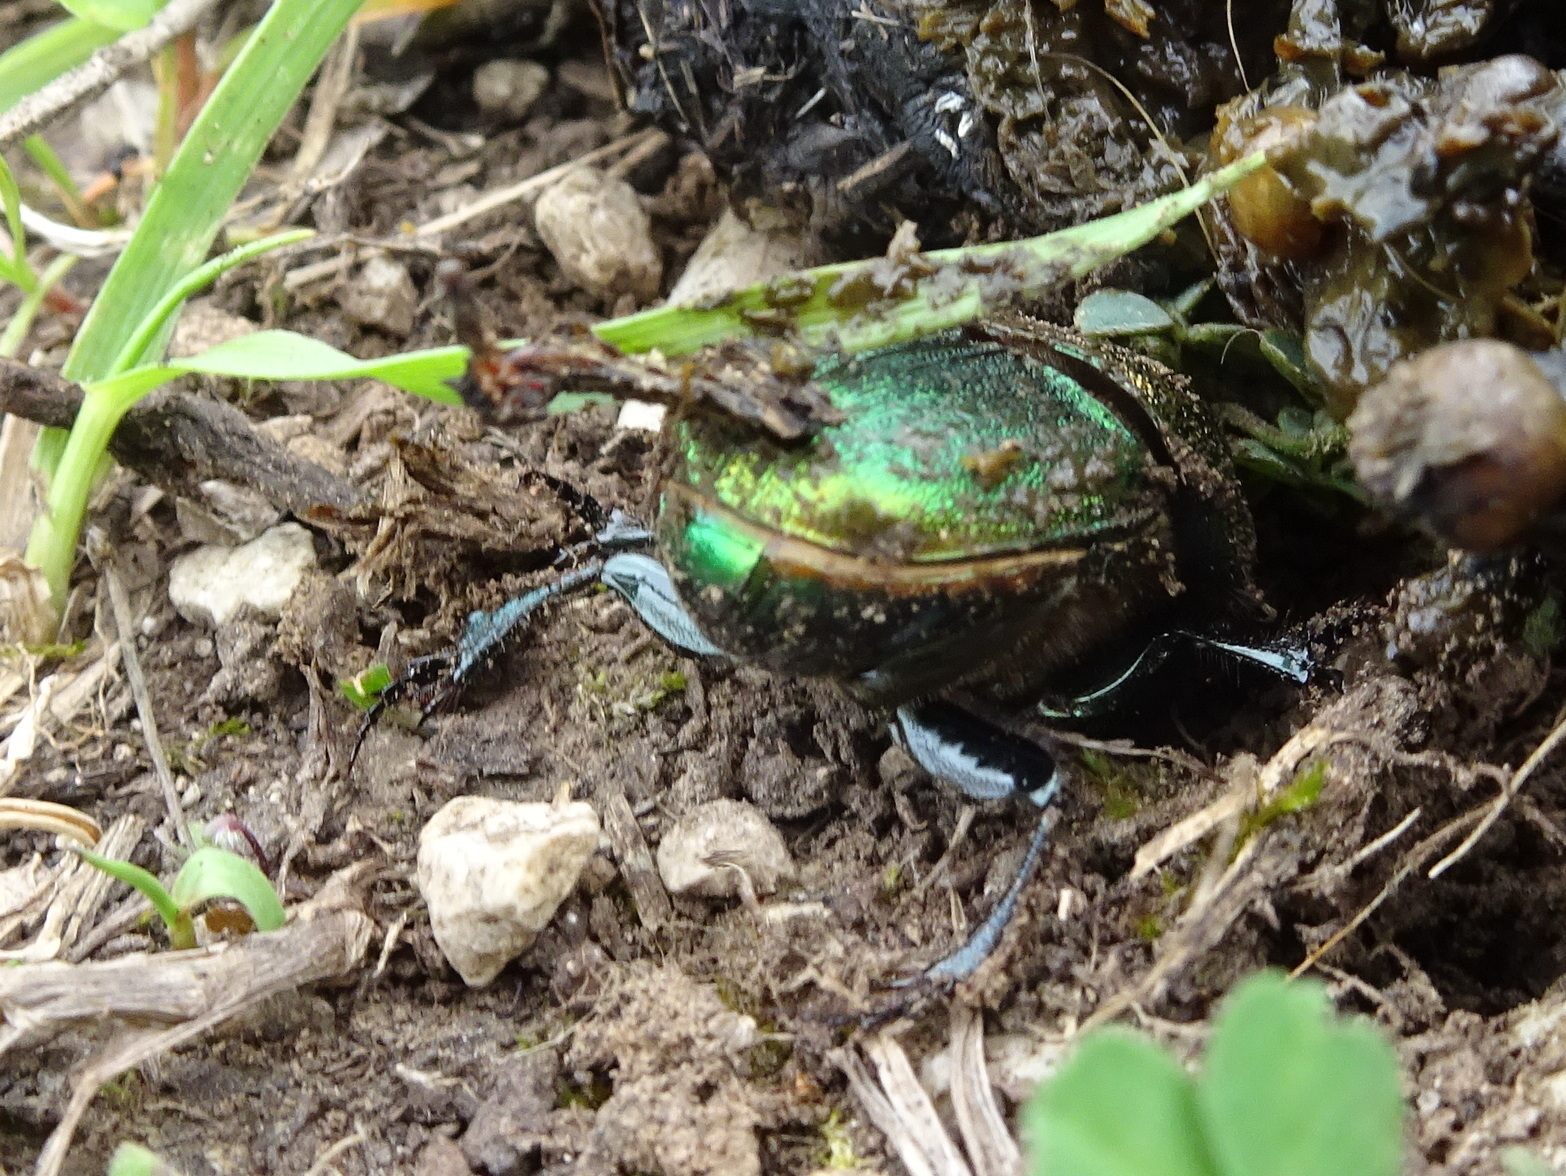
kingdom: Animalia
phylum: Arthropoda
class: Insecta
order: Coleoptera
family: Scarabaeidae
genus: Phanaeus
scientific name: Phanaeus vindex
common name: Rainbow scarab
